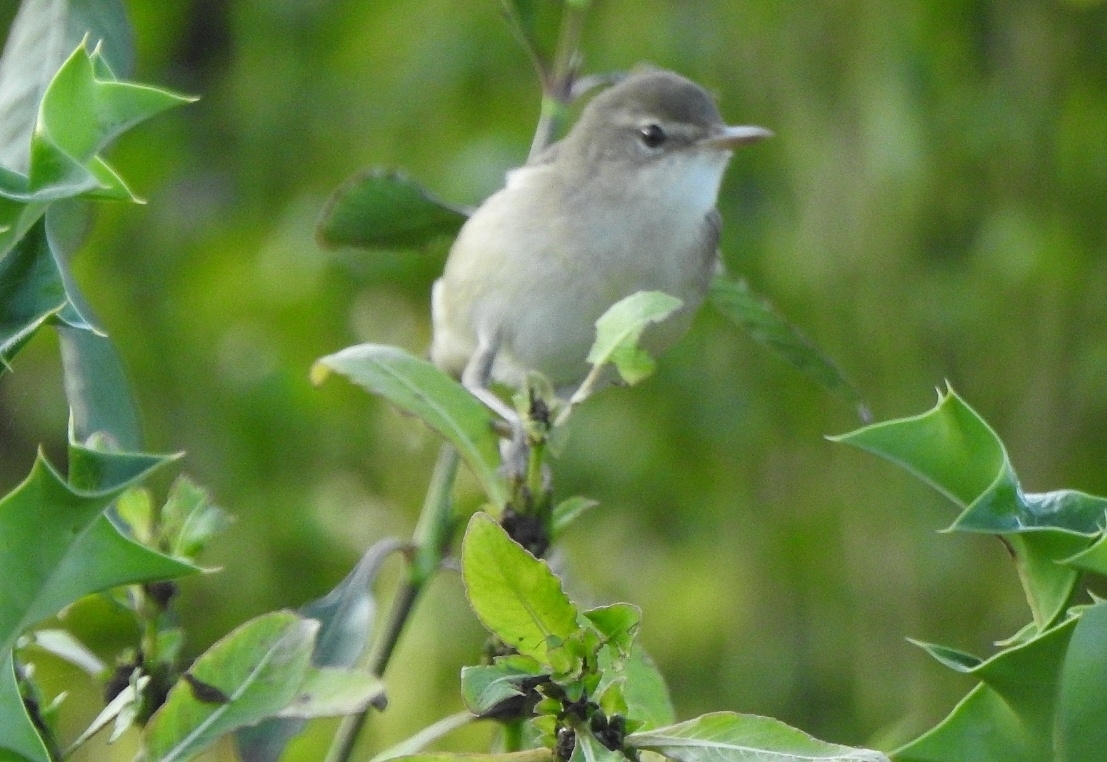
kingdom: Animalia
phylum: Chordata
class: Aves
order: Passeriformes
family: Acrocephalidae
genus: Iduna
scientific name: Iduna caligata
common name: Booted warbler
